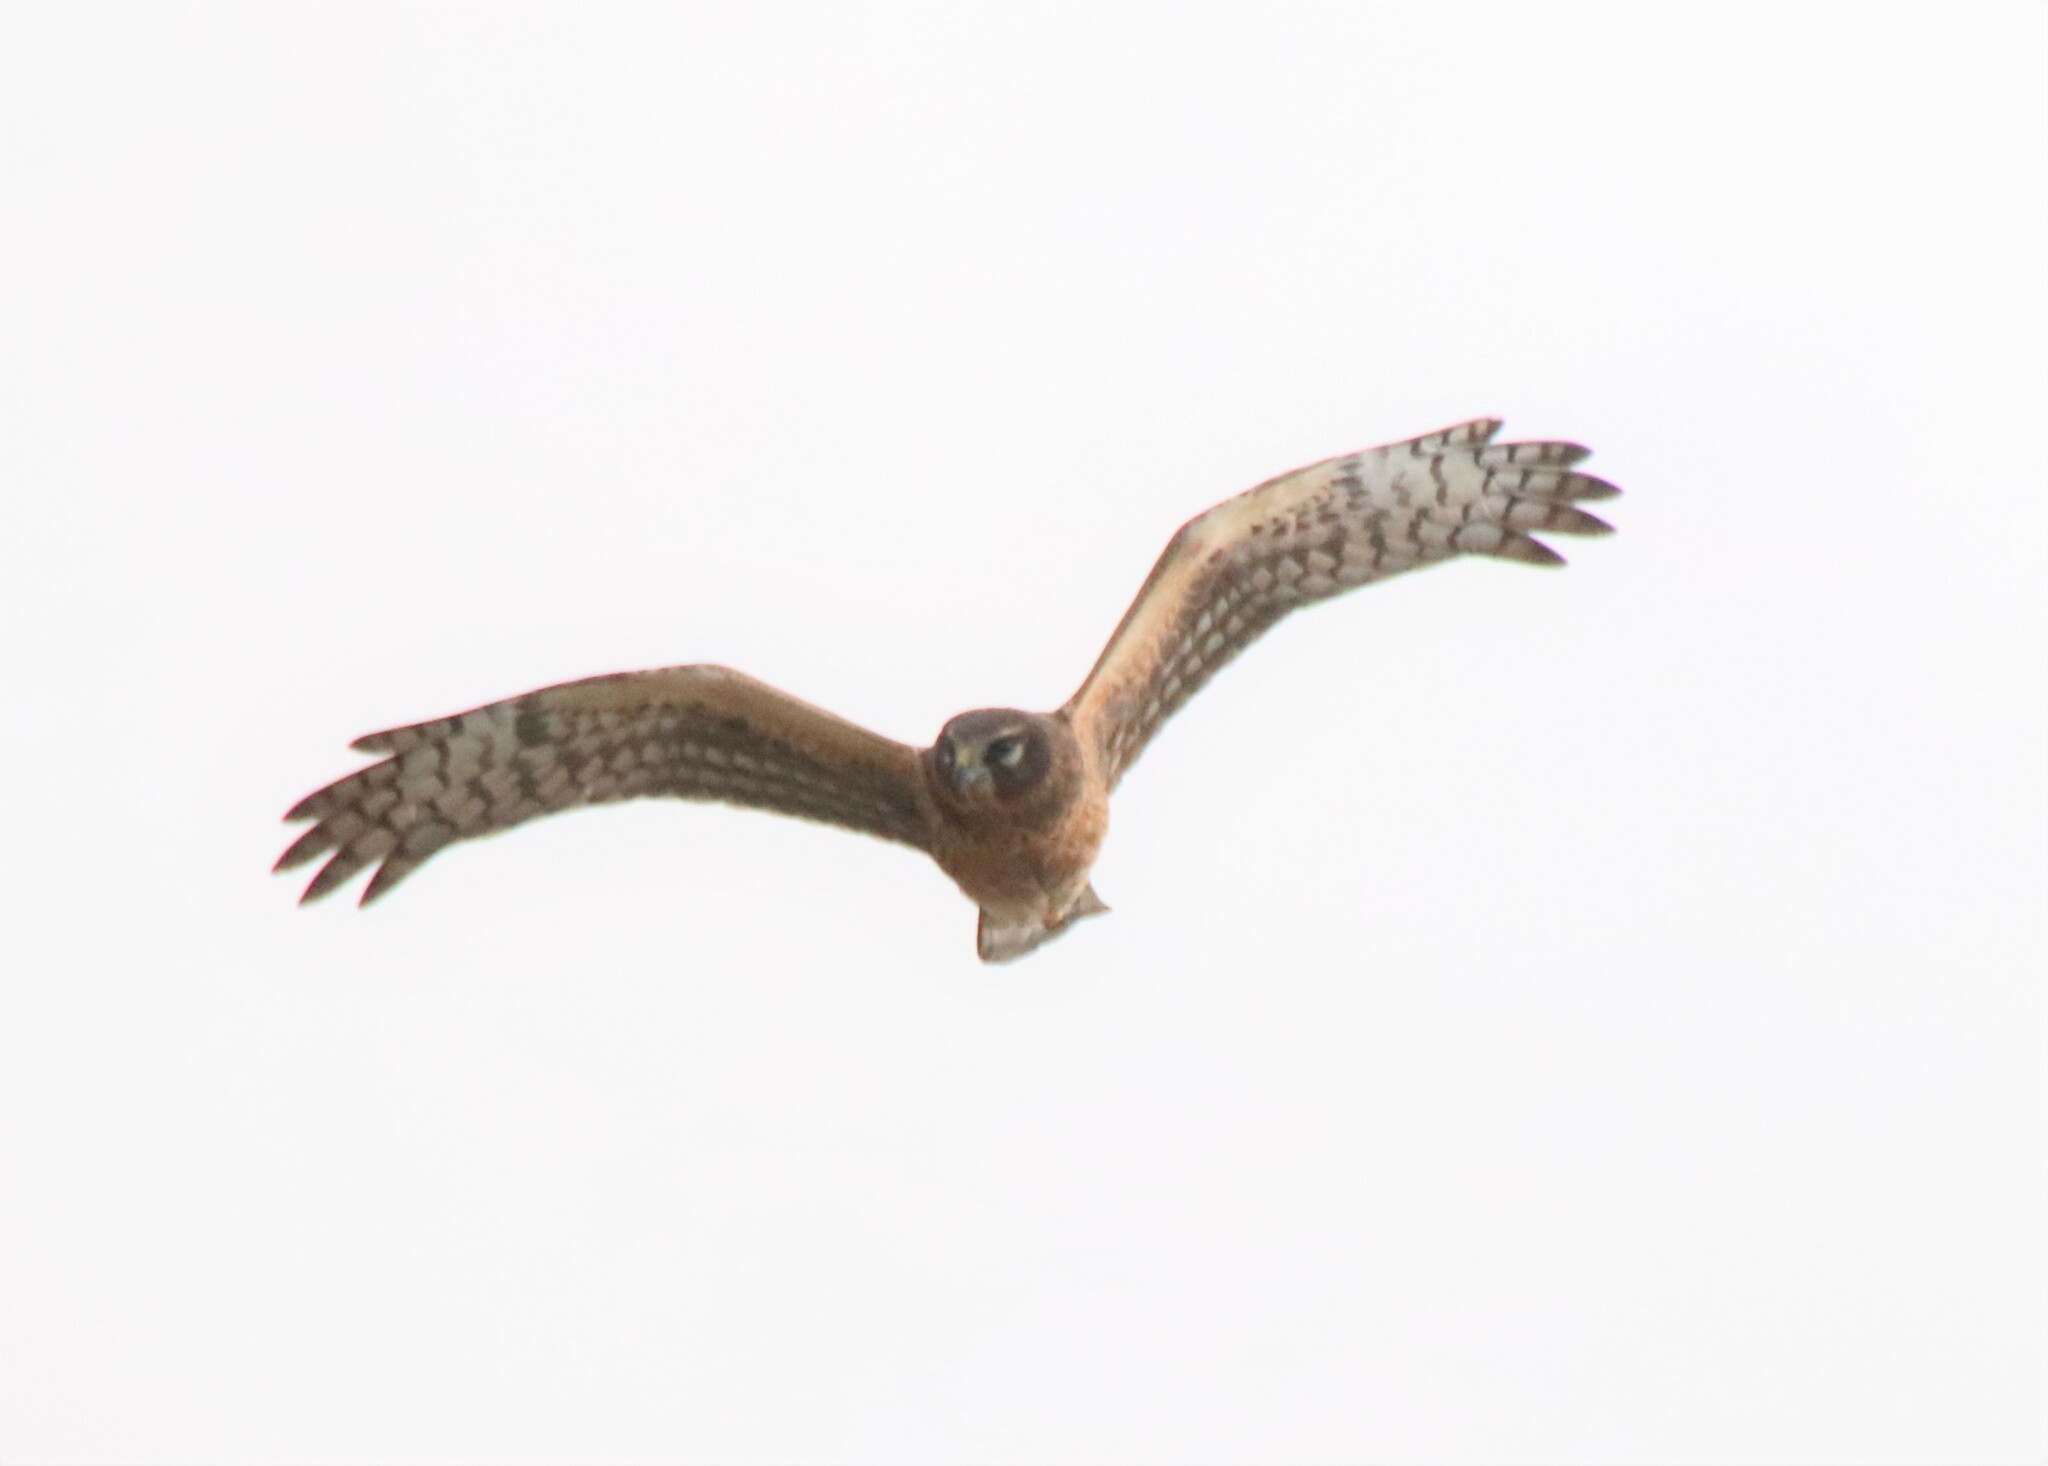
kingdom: Animalia
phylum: Chordata
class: Aves
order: Accipitriformes
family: Accipitridae
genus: Circus
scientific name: Circus cyaneus
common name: Hen harrier
